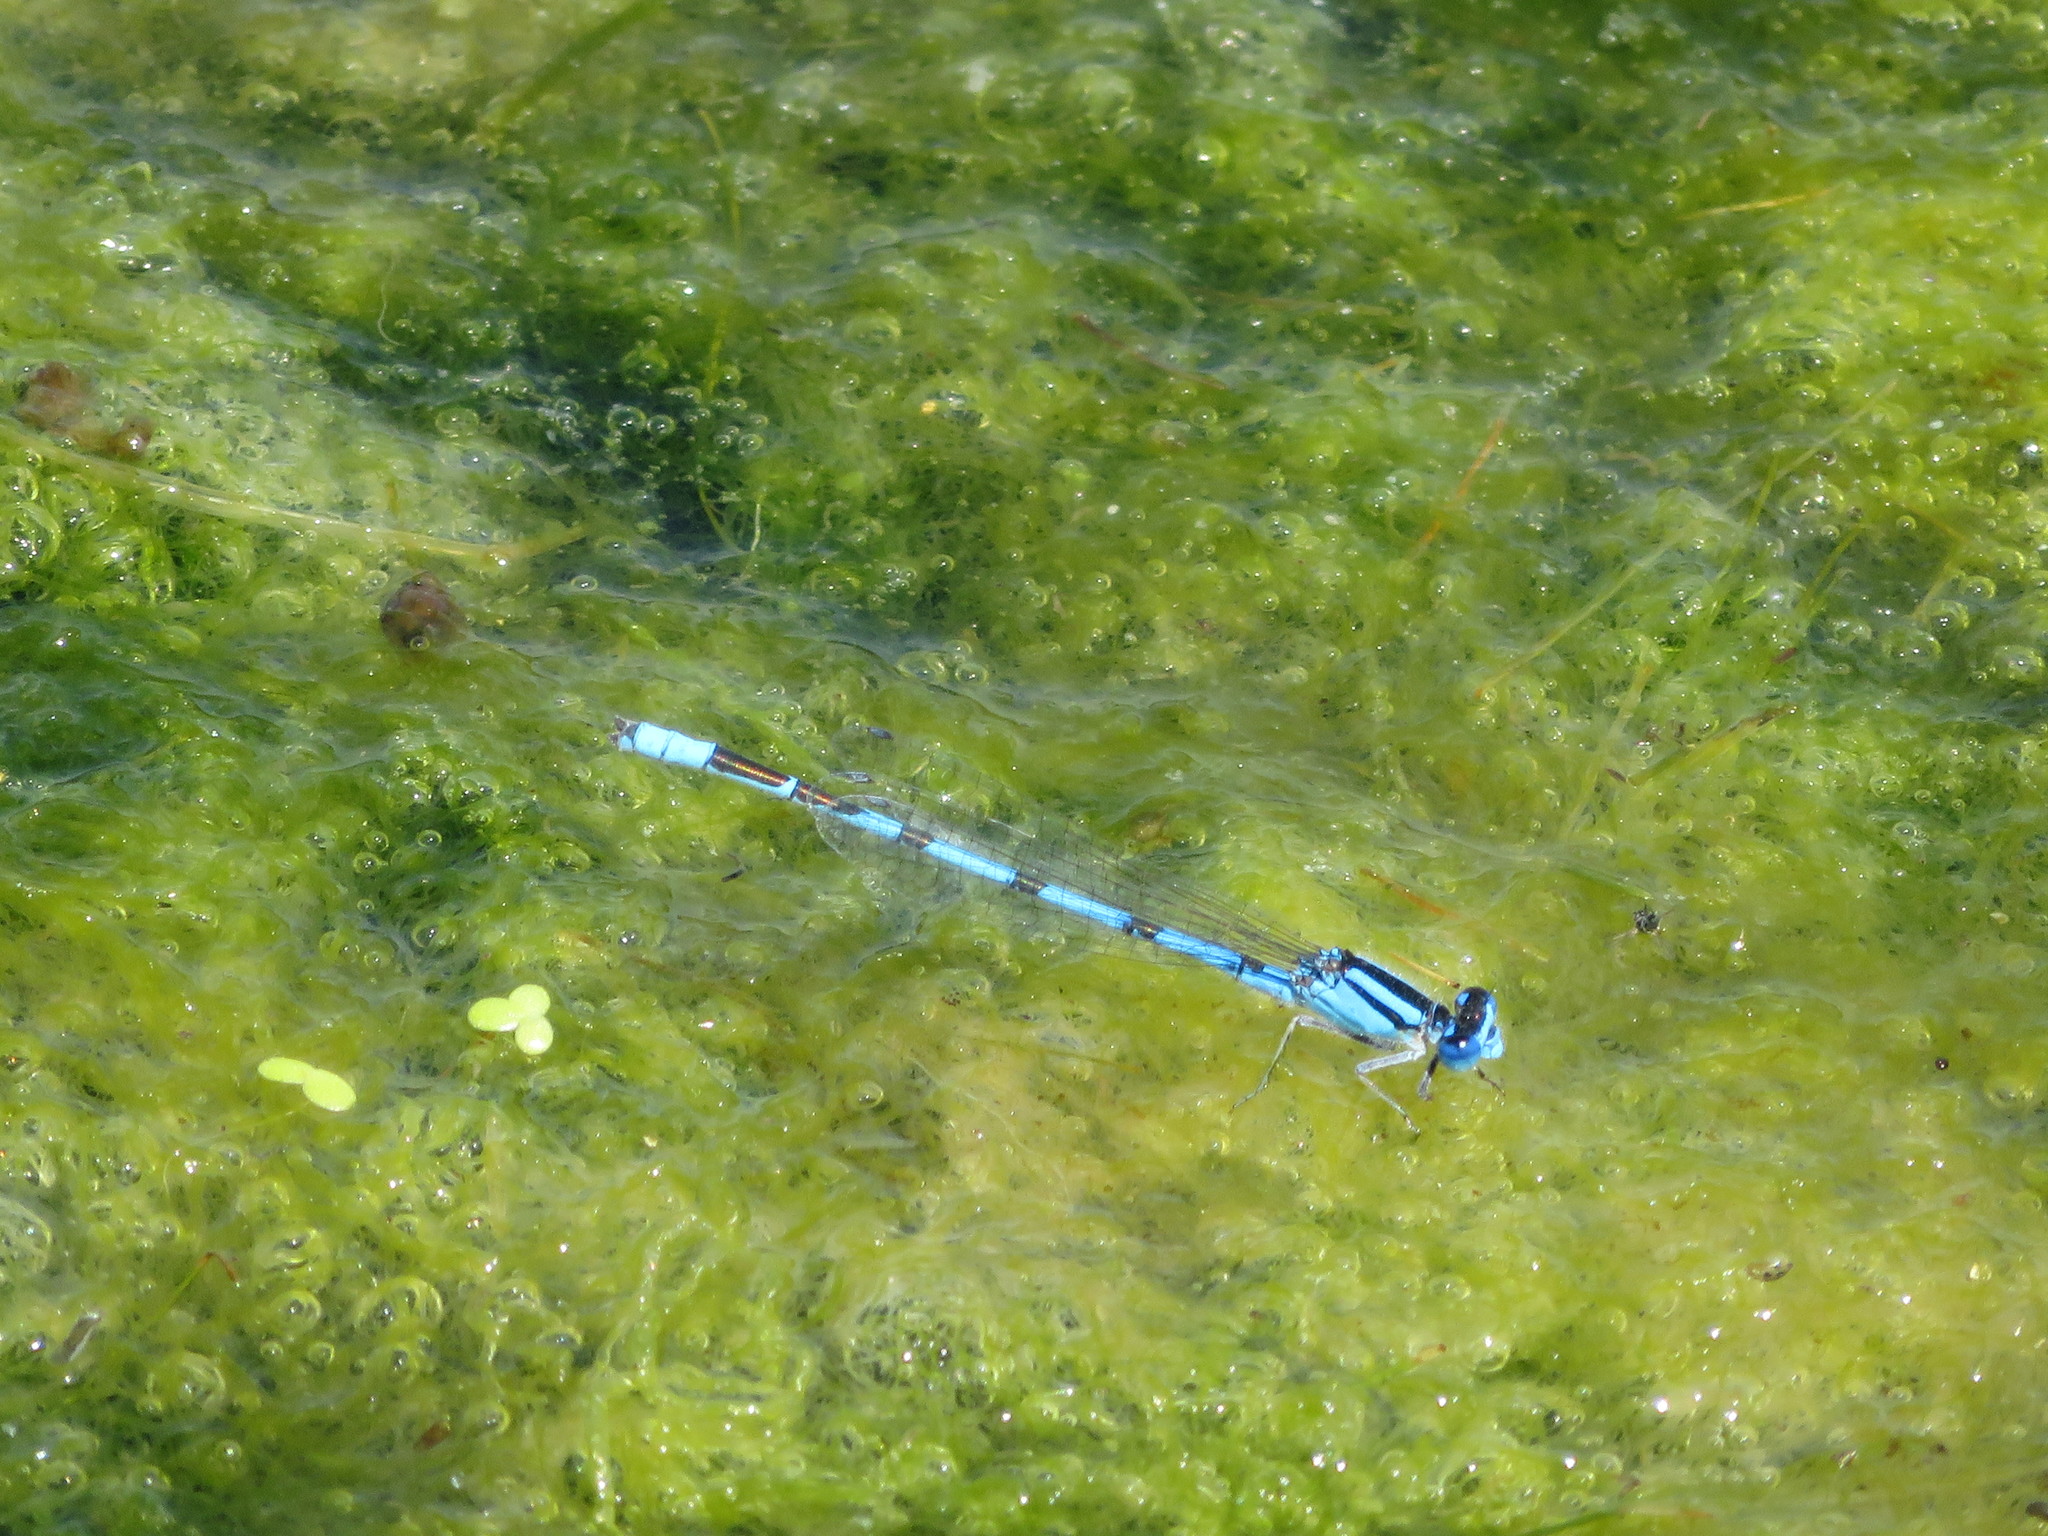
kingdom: Animalia
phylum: Arthropoda
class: Insecta
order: Odonata
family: Coenagrionidae
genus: Enallagma
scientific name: Enallagma civile
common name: Damselfly
